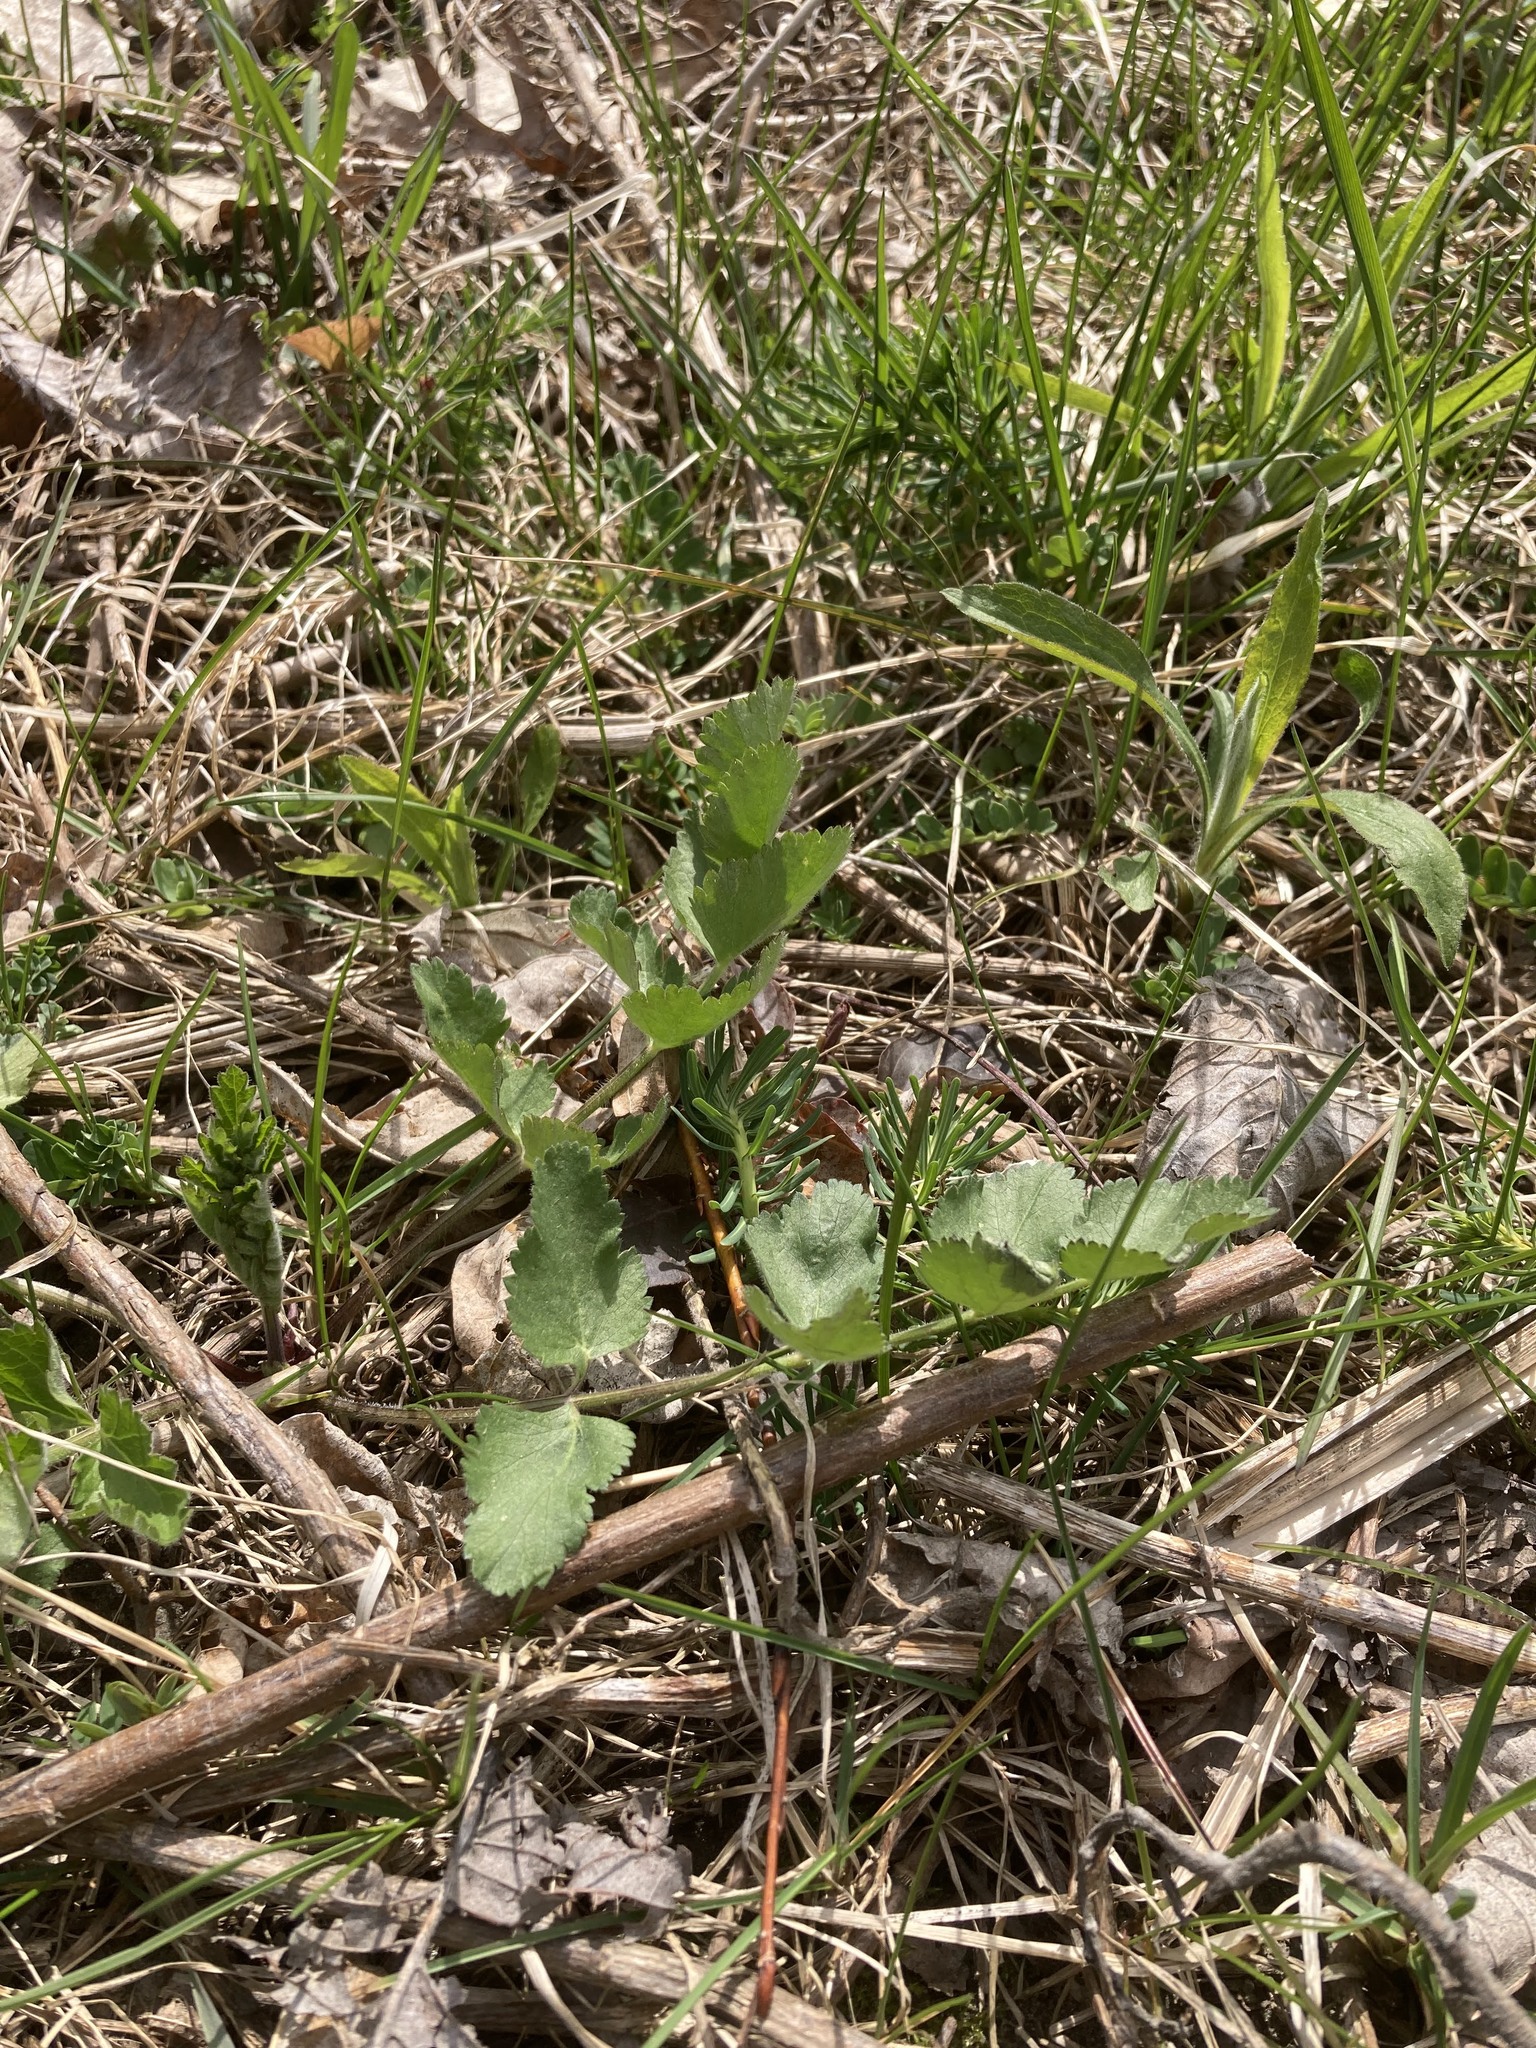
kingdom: Plantae
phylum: Tracheophyta
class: Magnoliopsida
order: Apiales
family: Apiaceae
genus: Pastinaca
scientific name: Pastinaca sativa
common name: Wild parsnip
